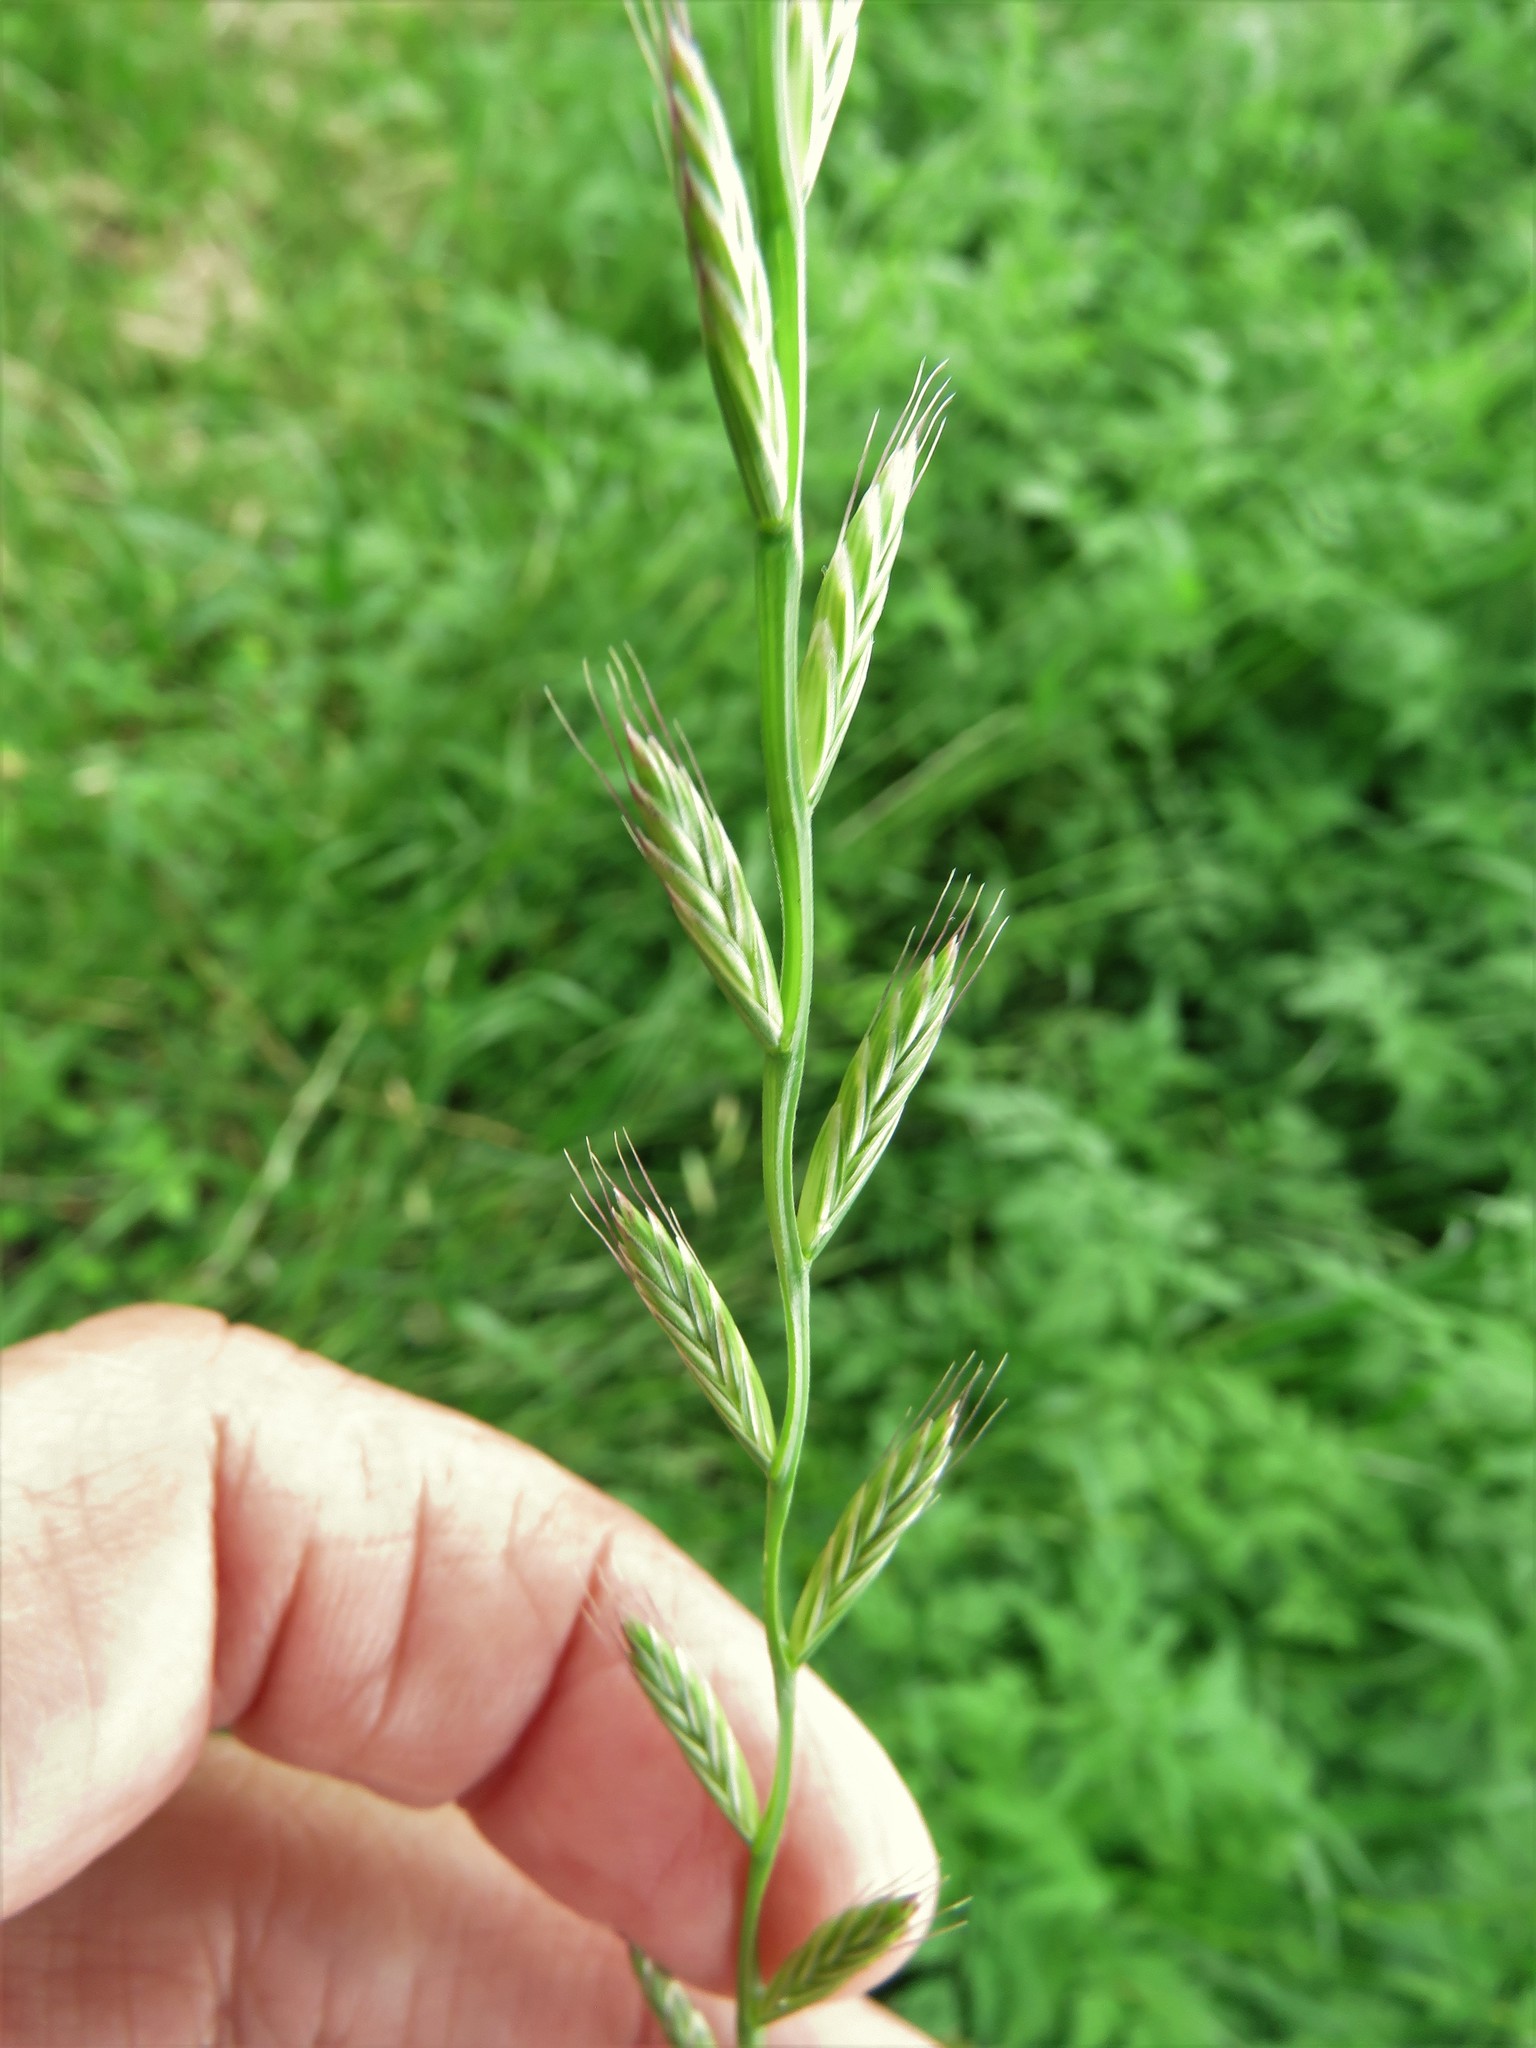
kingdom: Plantae
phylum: Tracheophyta
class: Liliopsida
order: Poales
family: Poaceae
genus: Lolium
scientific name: Lolium perenne
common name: Perennial ryegrass
